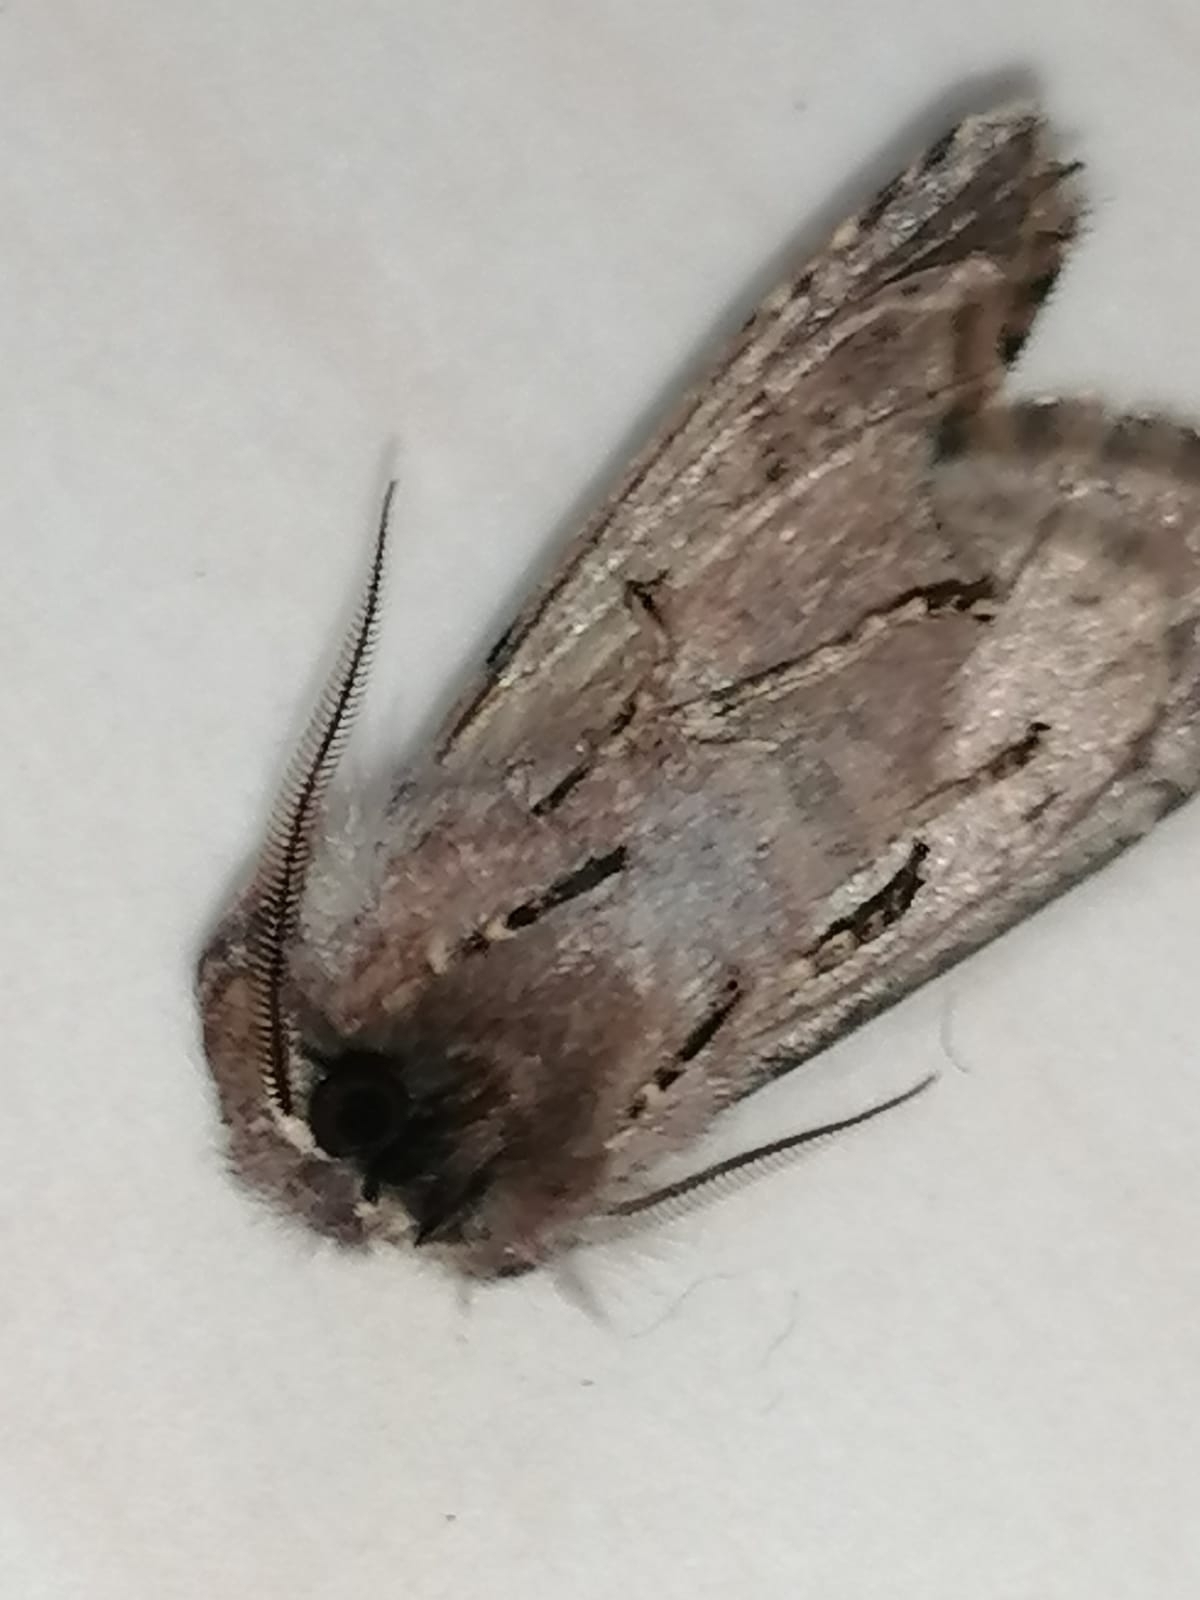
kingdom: Animalia
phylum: Arthropoda
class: Insecta
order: Lepidoptera
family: Noctuidae
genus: Orthosia
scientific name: Orthosia gothica
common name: Hebrew character
